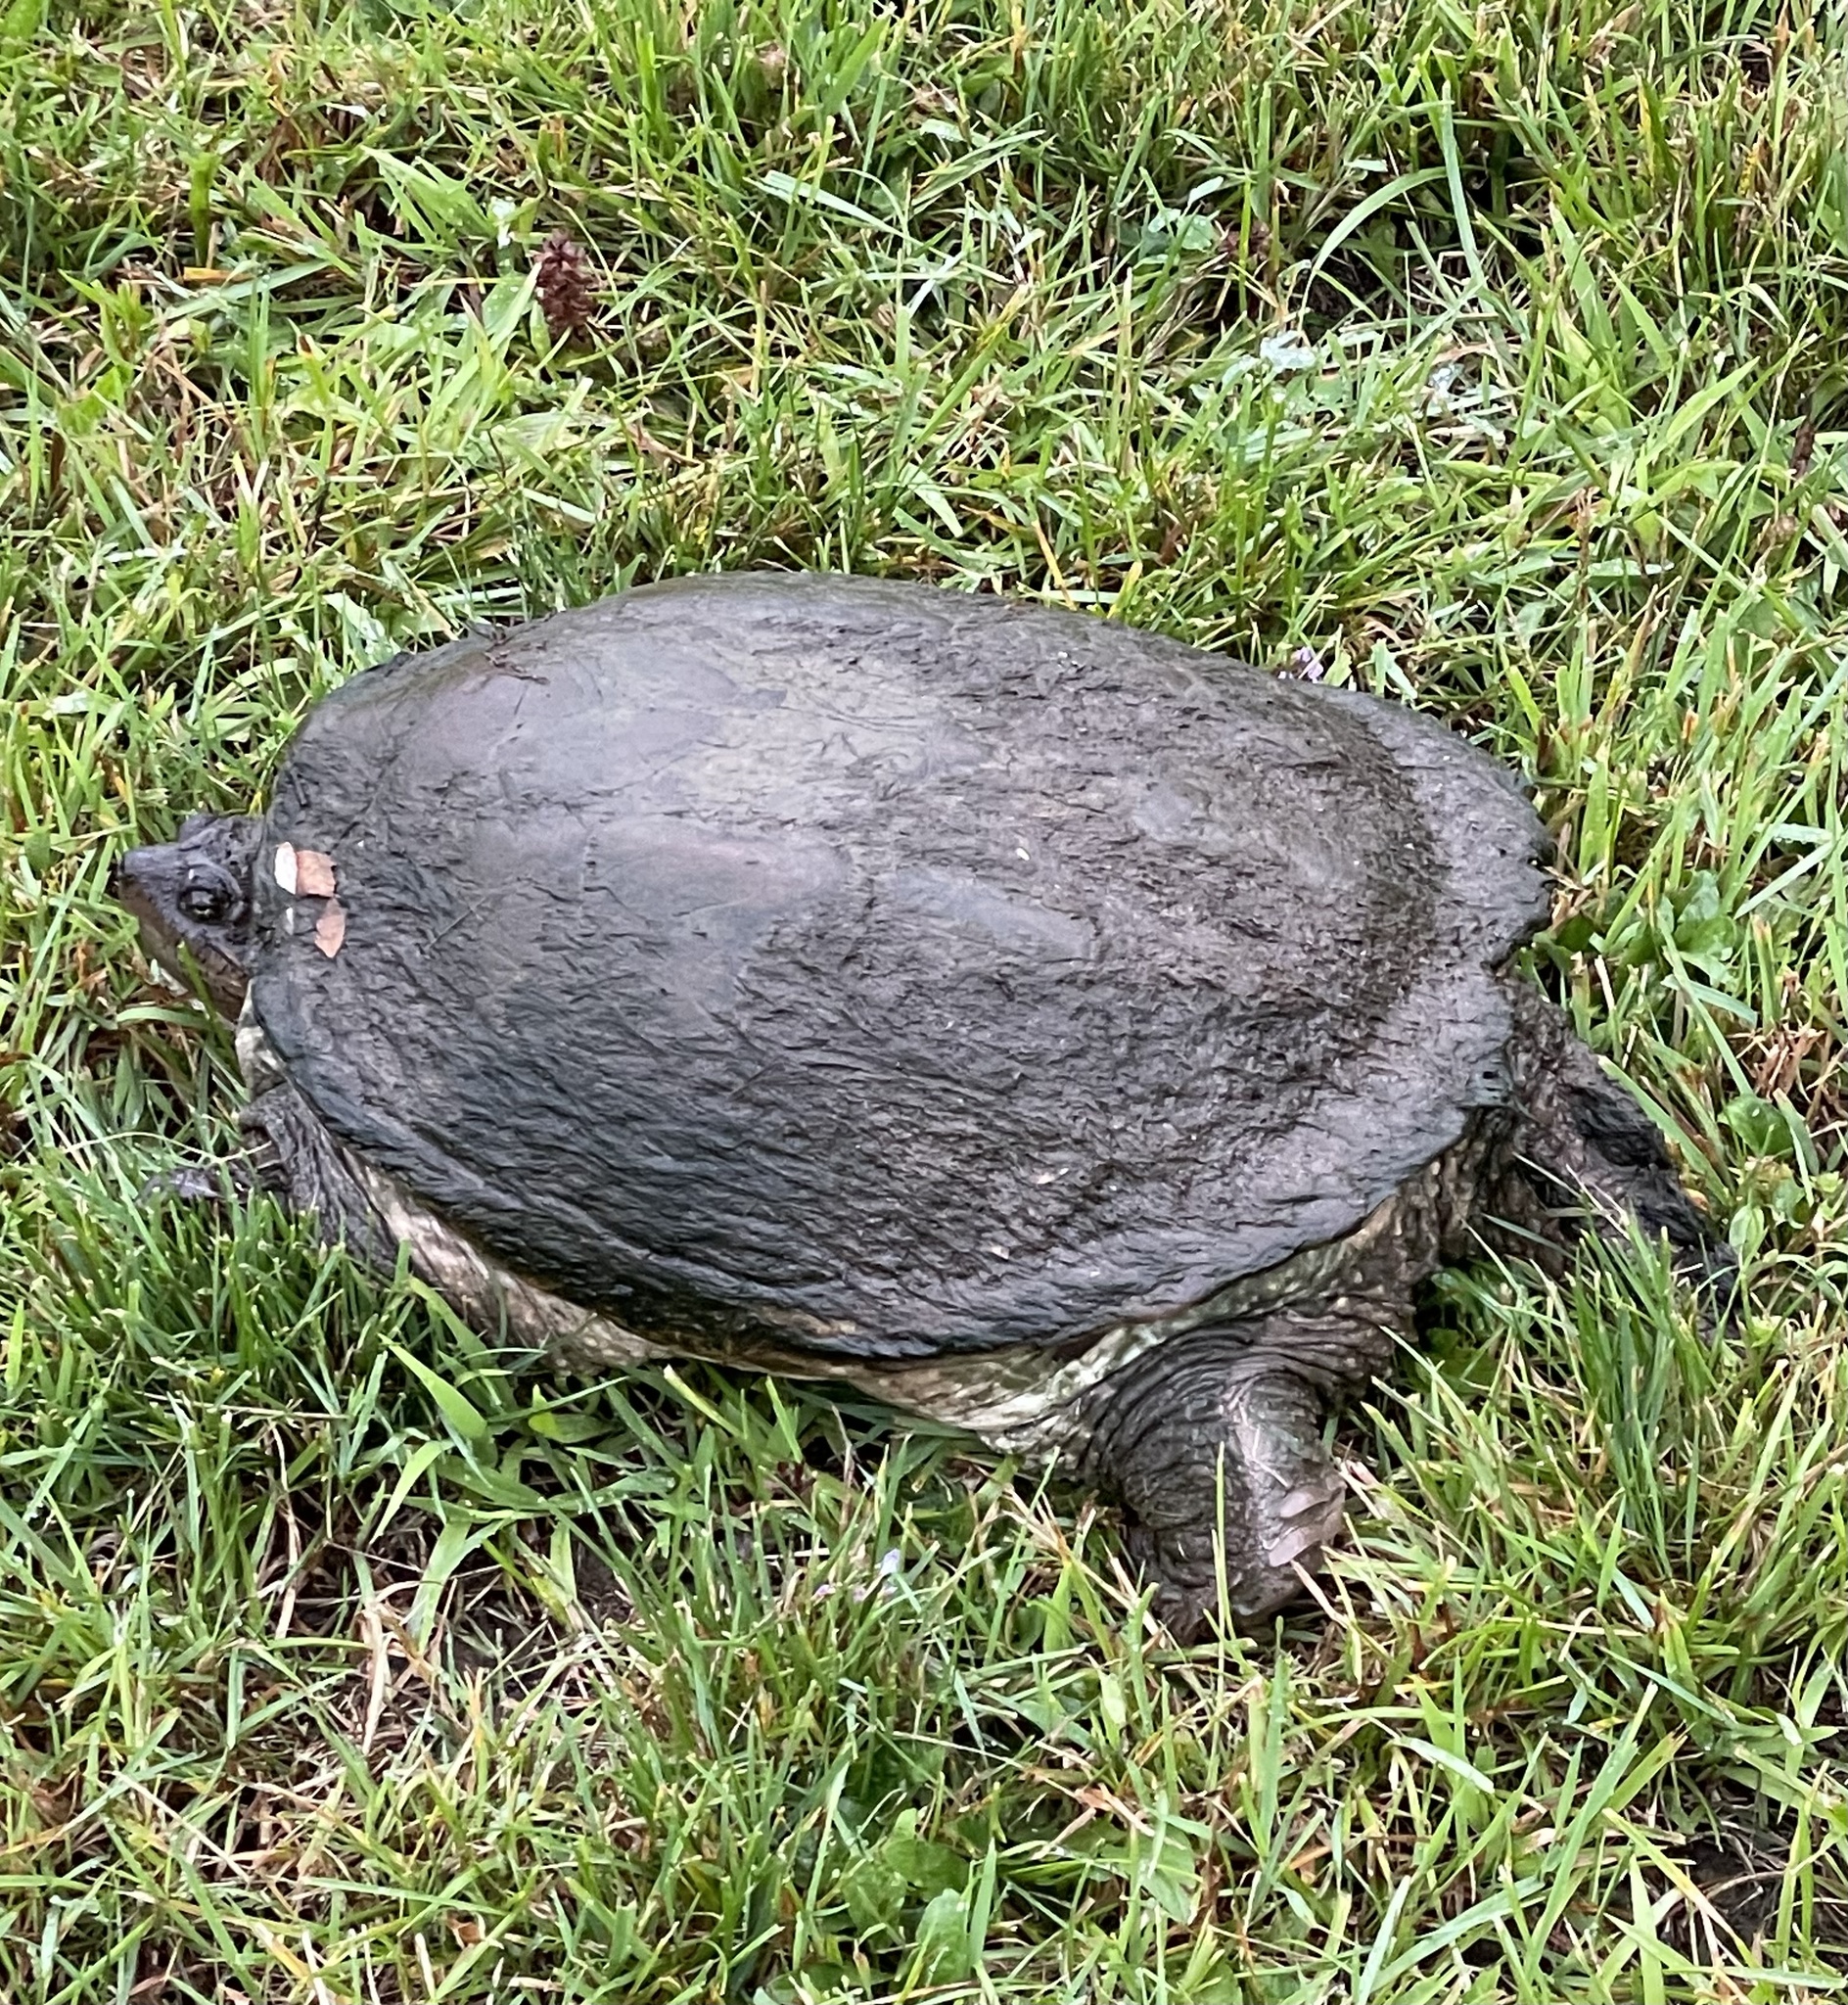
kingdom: Animalia
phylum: Chordata
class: Testudines
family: Chelydridae
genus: Chelydra
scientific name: Chelydra serpentina
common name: Common snapping turtle
